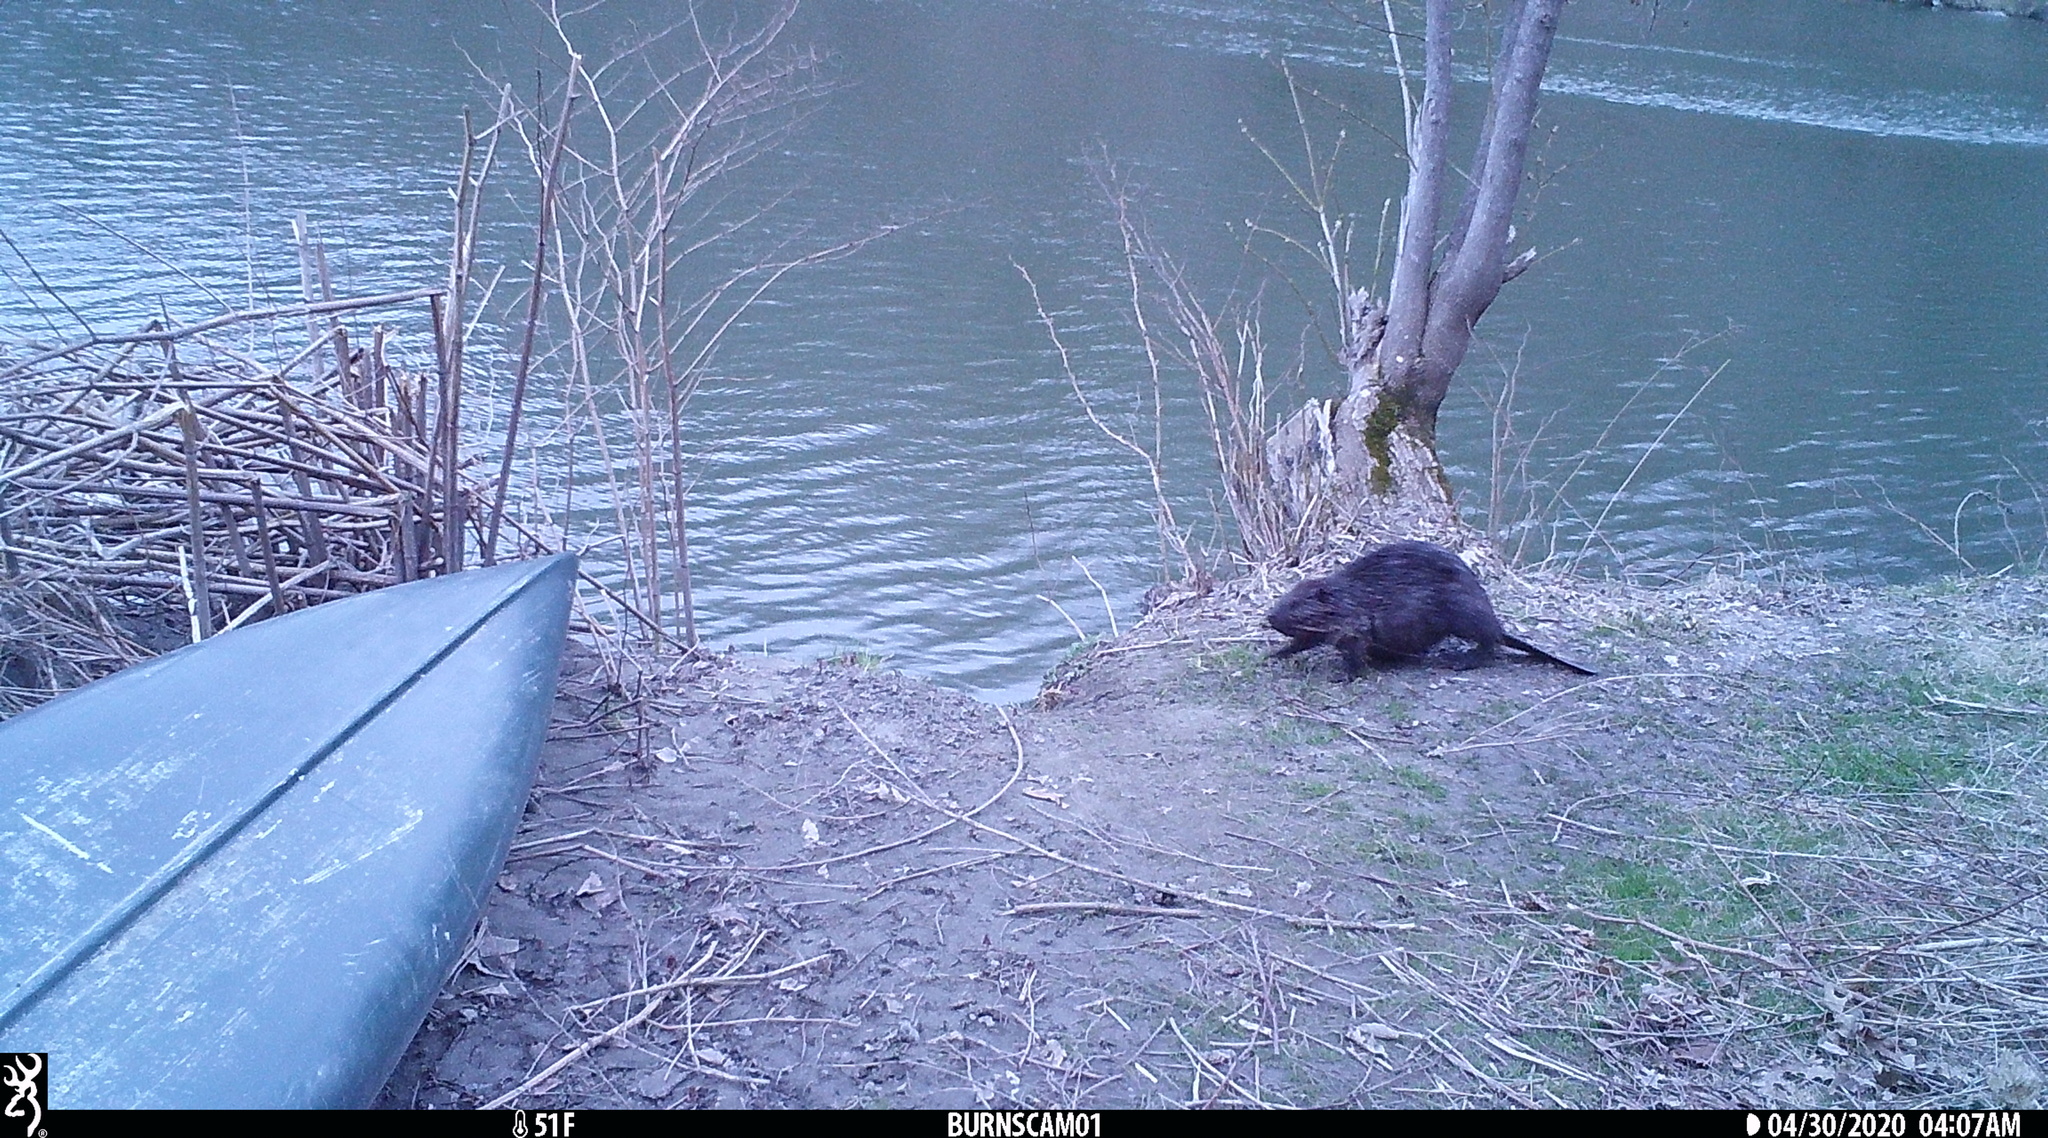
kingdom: Animalia
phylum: Chordata
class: Mammalia
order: Rodentia
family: Castoridae
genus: Castor
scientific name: Castor canadensis
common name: American beaver
